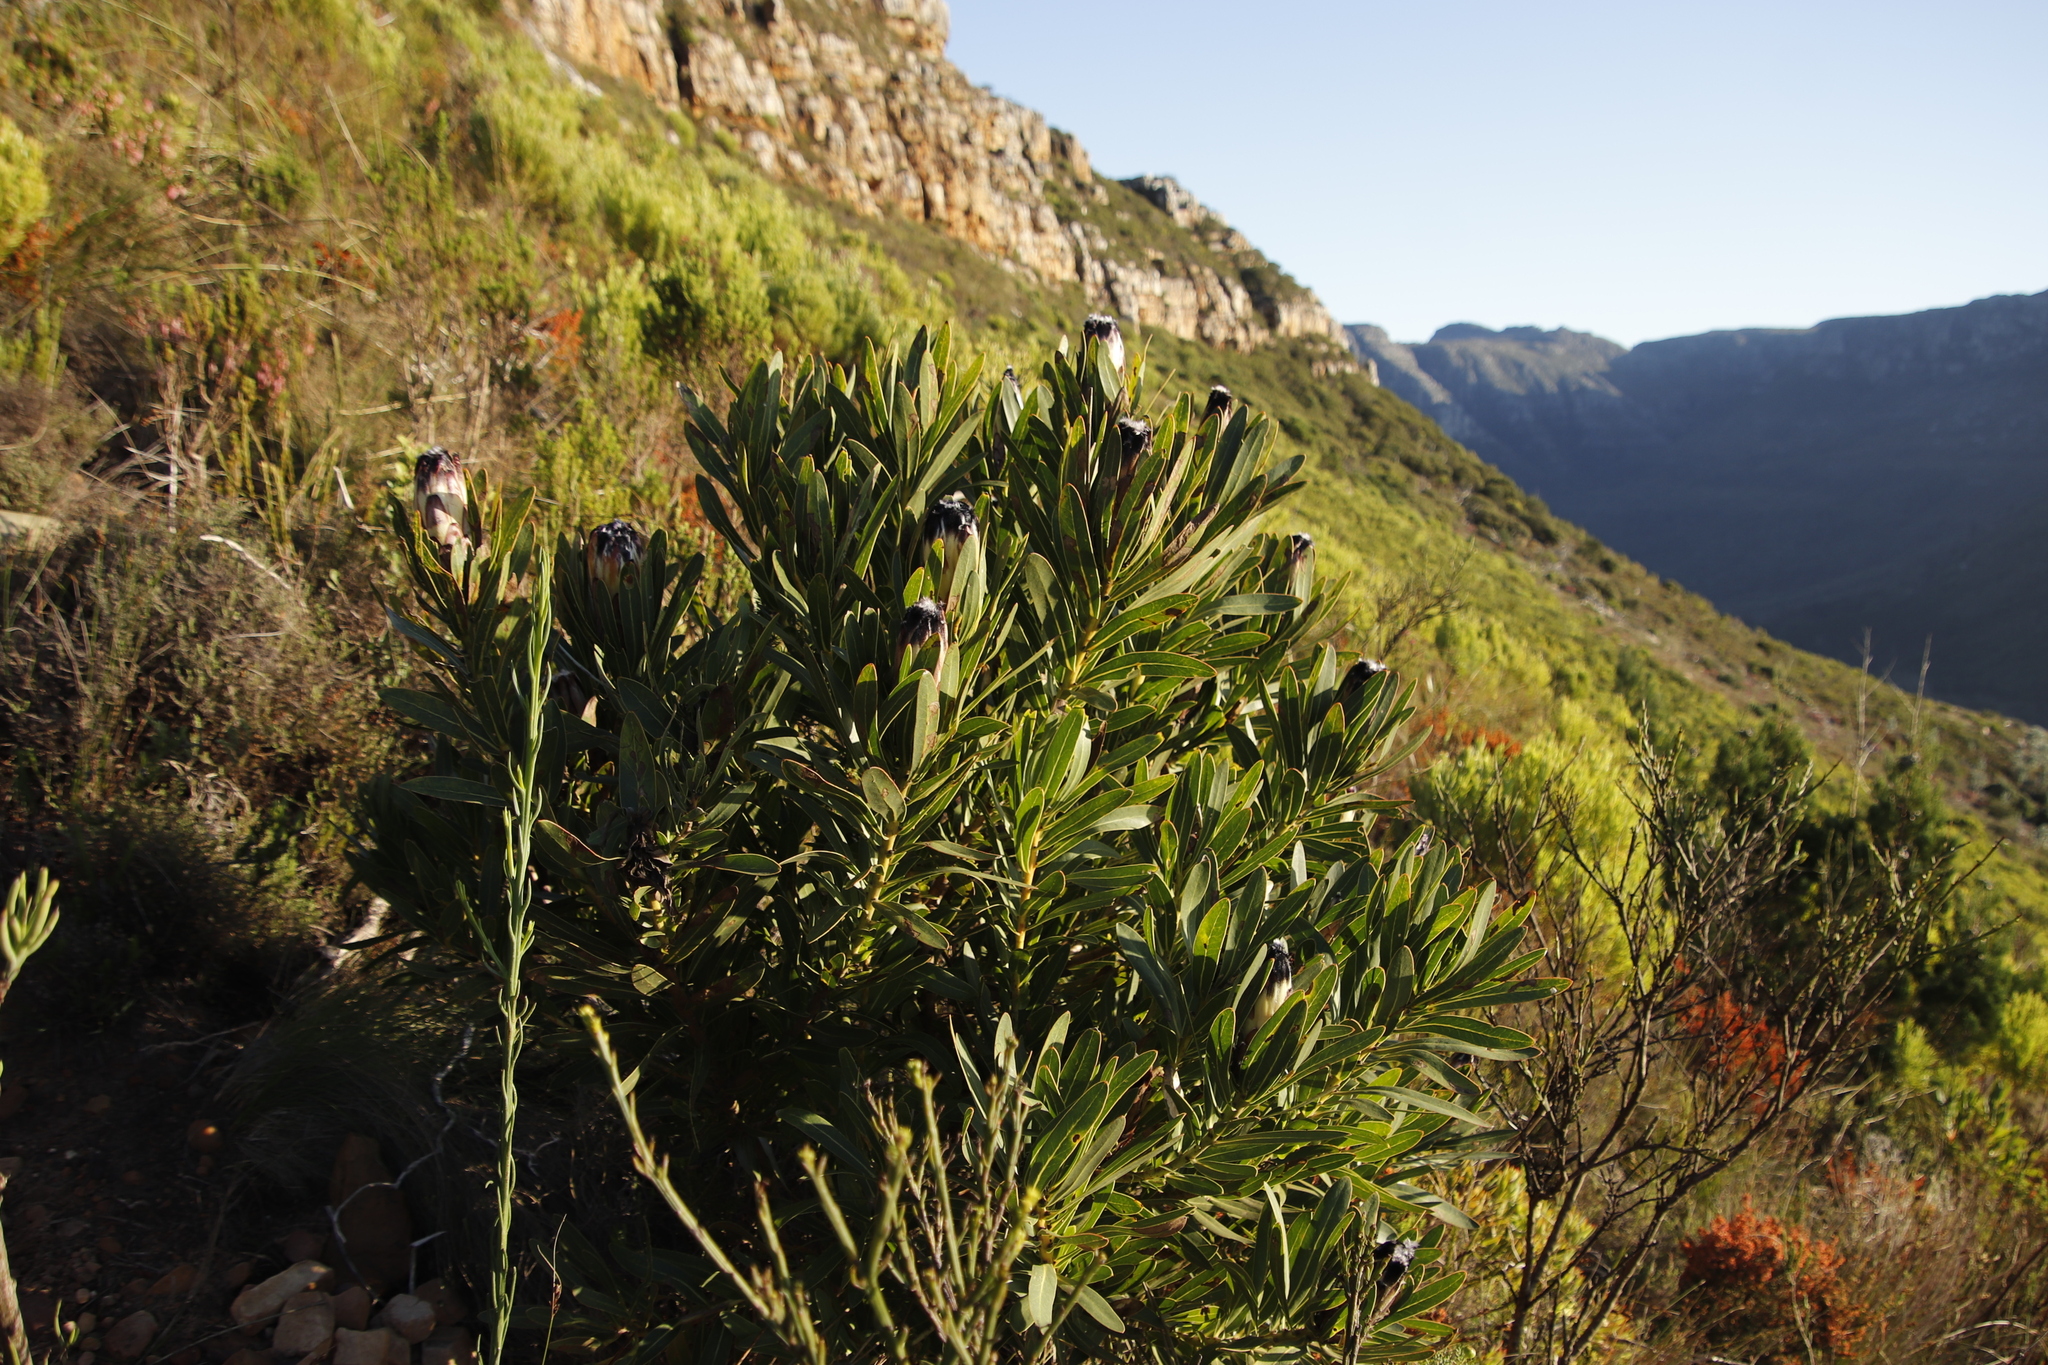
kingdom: Plantae
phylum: Tracheophyta
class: Magnoliopsida
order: Proteales
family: Proteaceae
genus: Protea
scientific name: Protea lepidocarpodendron
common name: Black-bearded protea
